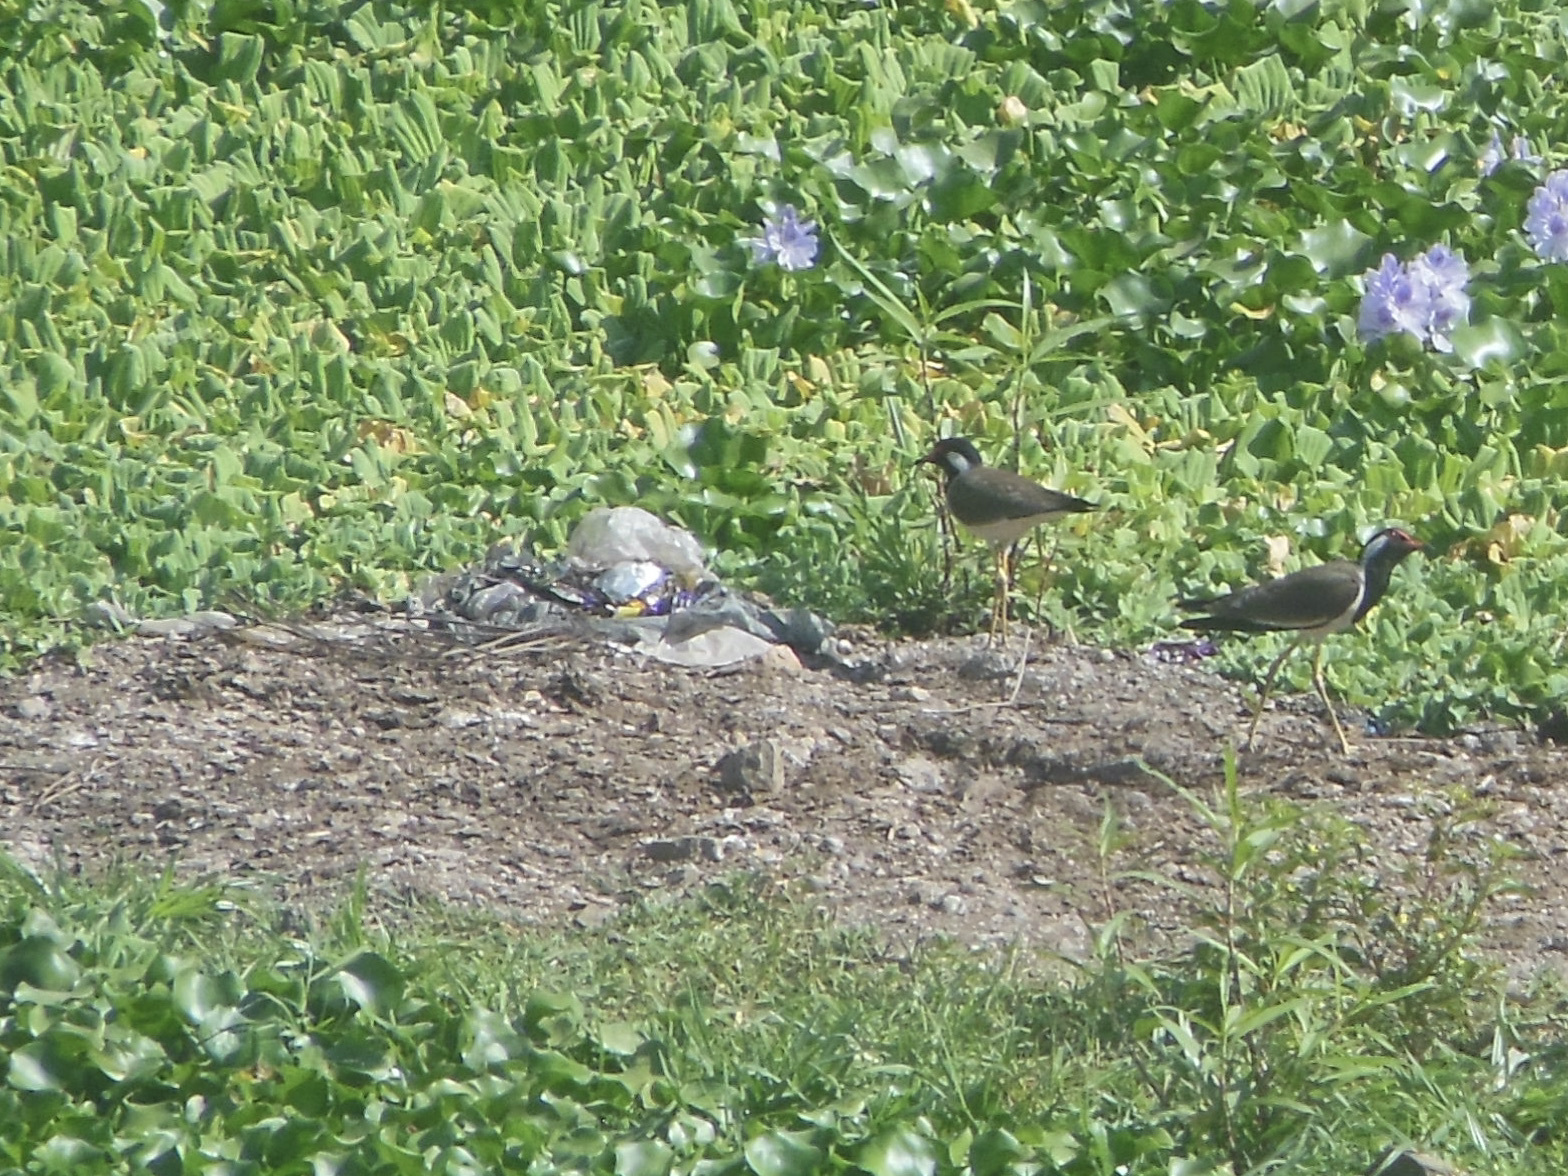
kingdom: Animalia
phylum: Chordata
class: Aves
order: Charadriiformes
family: Charadriidae
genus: Vanellus
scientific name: Vanellus indicus
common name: Red-wattled lapwing
